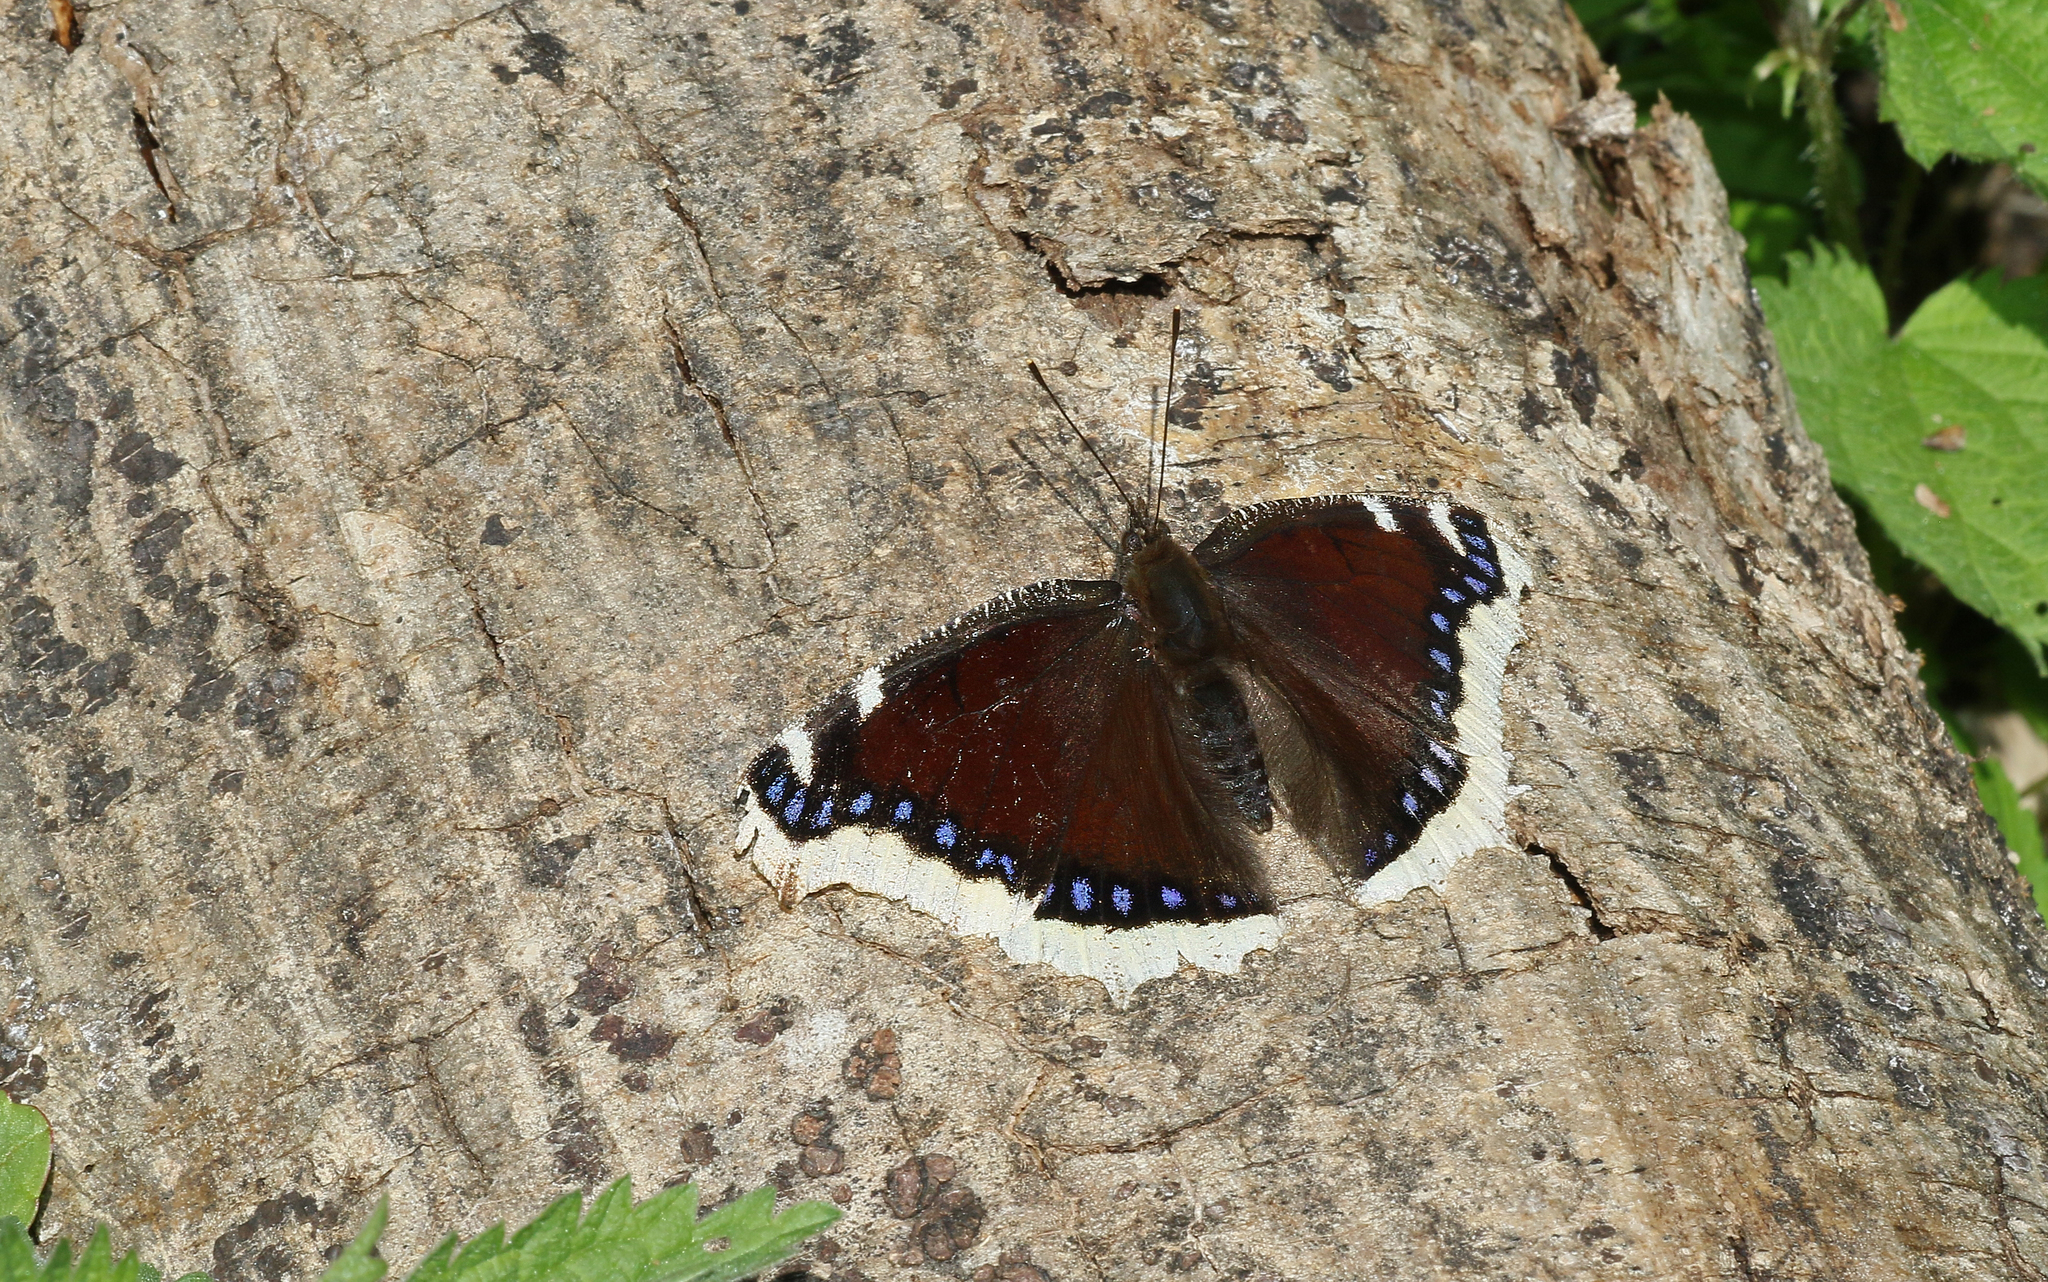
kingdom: Animalia
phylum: Arthropoda
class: Insecta
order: Lepidoptera
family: Nymphalidae
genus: Nymphalis
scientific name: Nymphalis antiopa
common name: Camberwell beauty
